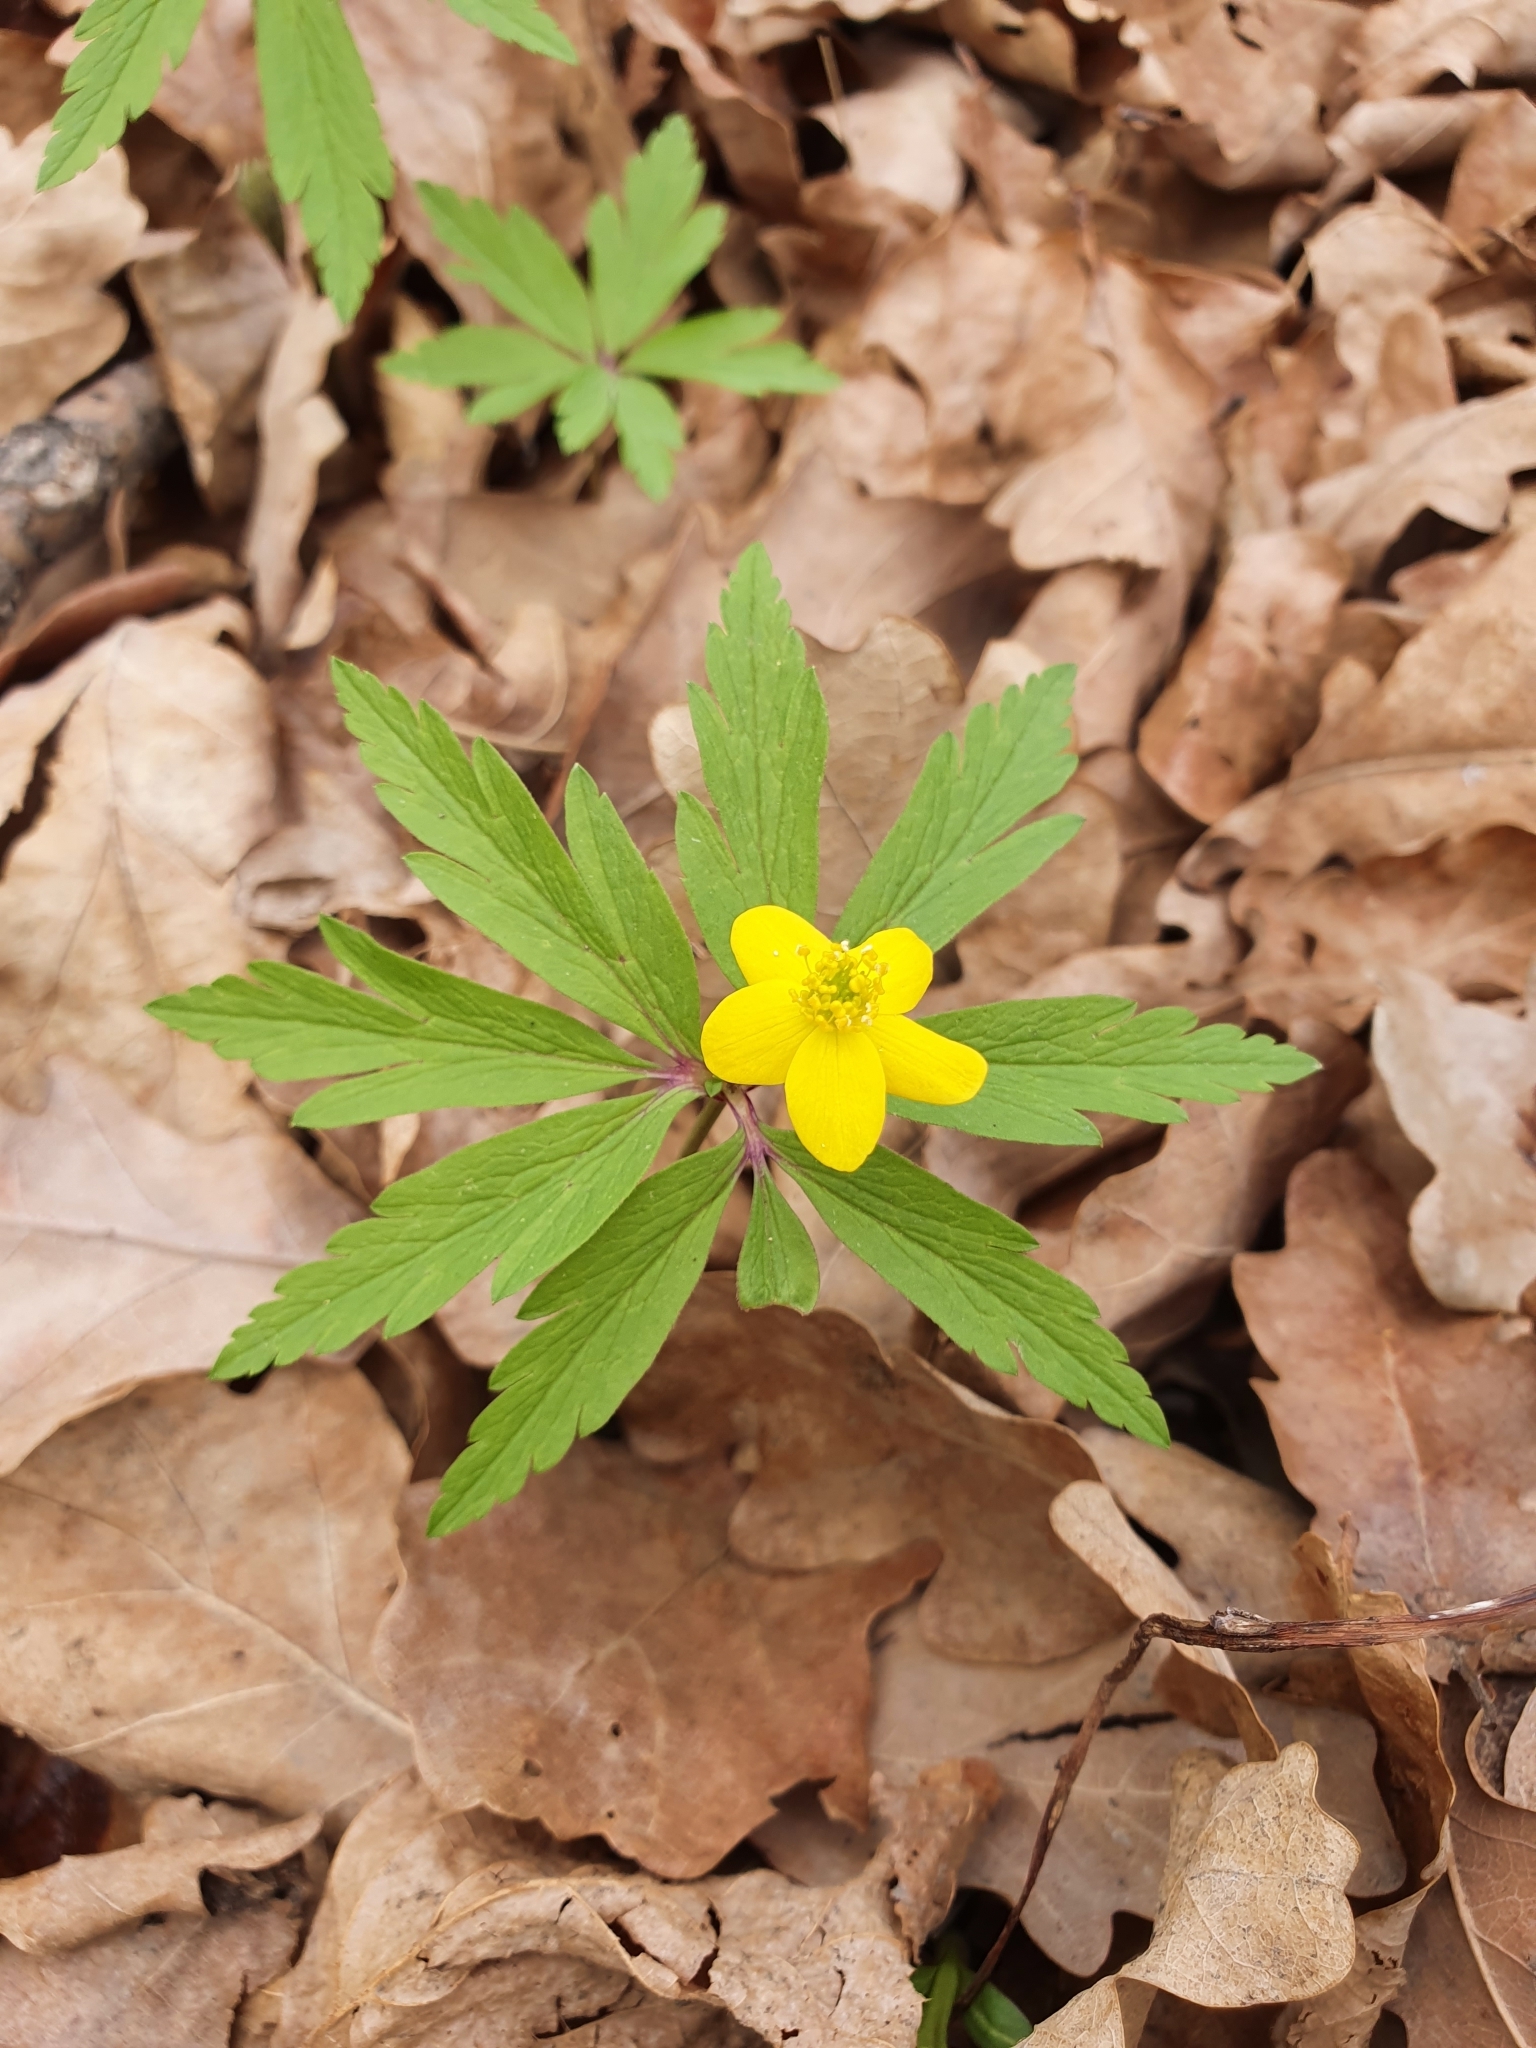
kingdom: Plantae
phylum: Tracheophyta
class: Magnoliopsida
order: Ranunculales
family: Ranunculaceae
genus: Anemone
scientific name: Anemone ranunculoides
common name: Yellow anemone
